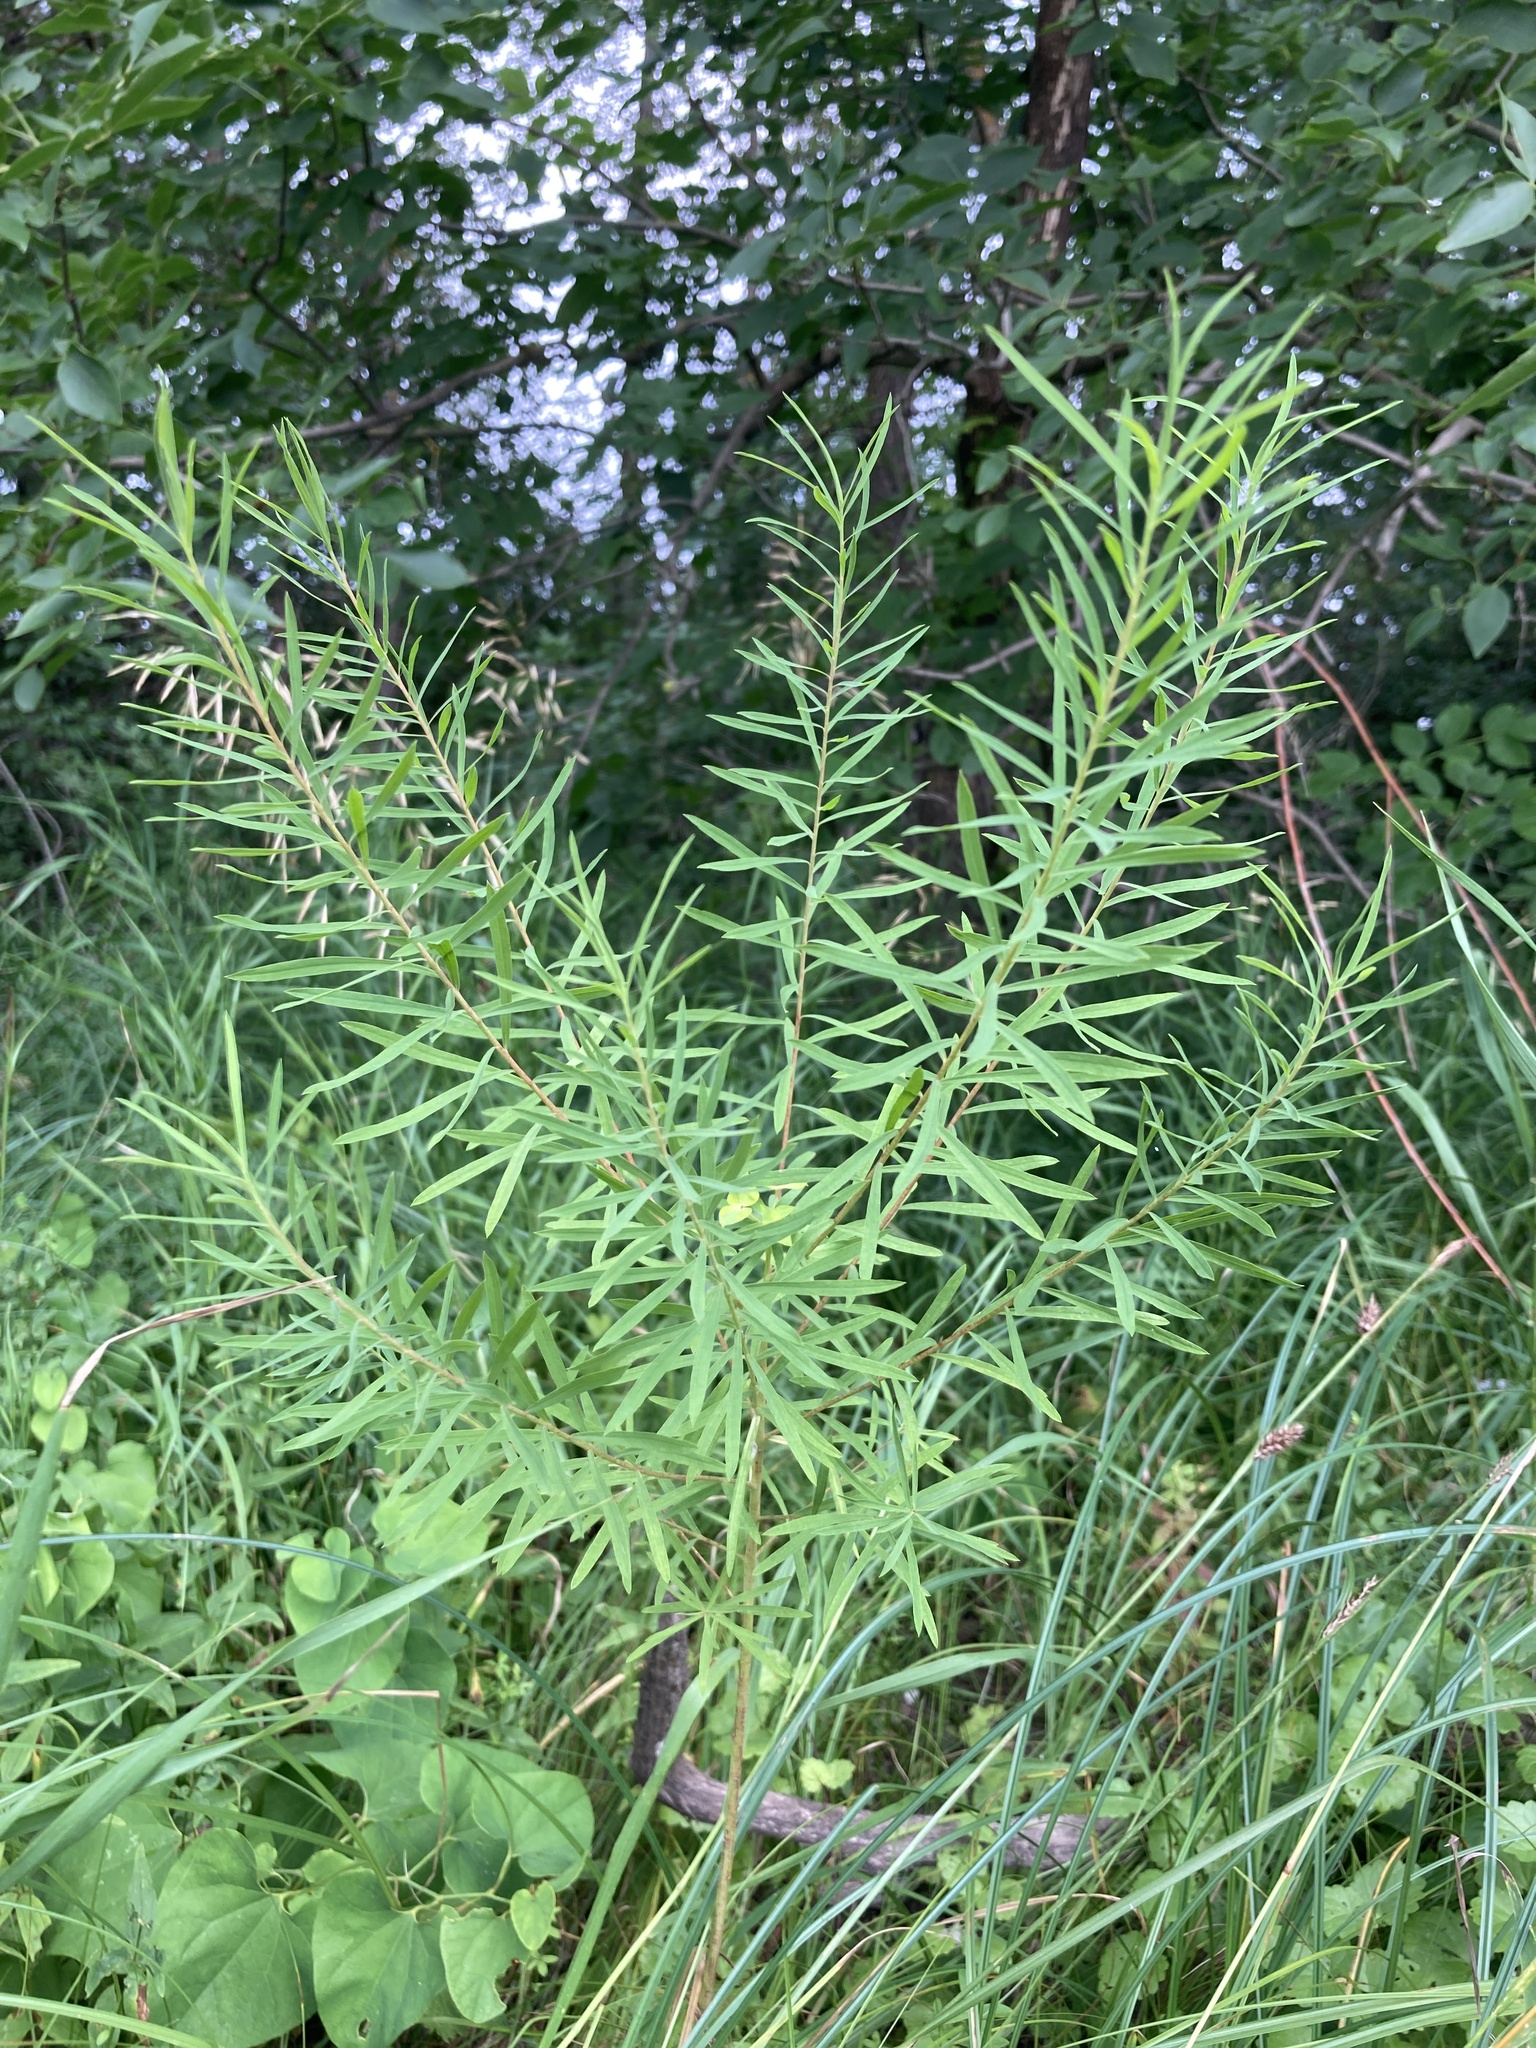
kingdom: Plantae
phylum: Tracheophyta
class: Magnoliopsida
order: Malpighiales
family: Euphorbiaceae
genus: Euphorbia
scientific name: Euphorbia virgata
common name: Leafy spurge
